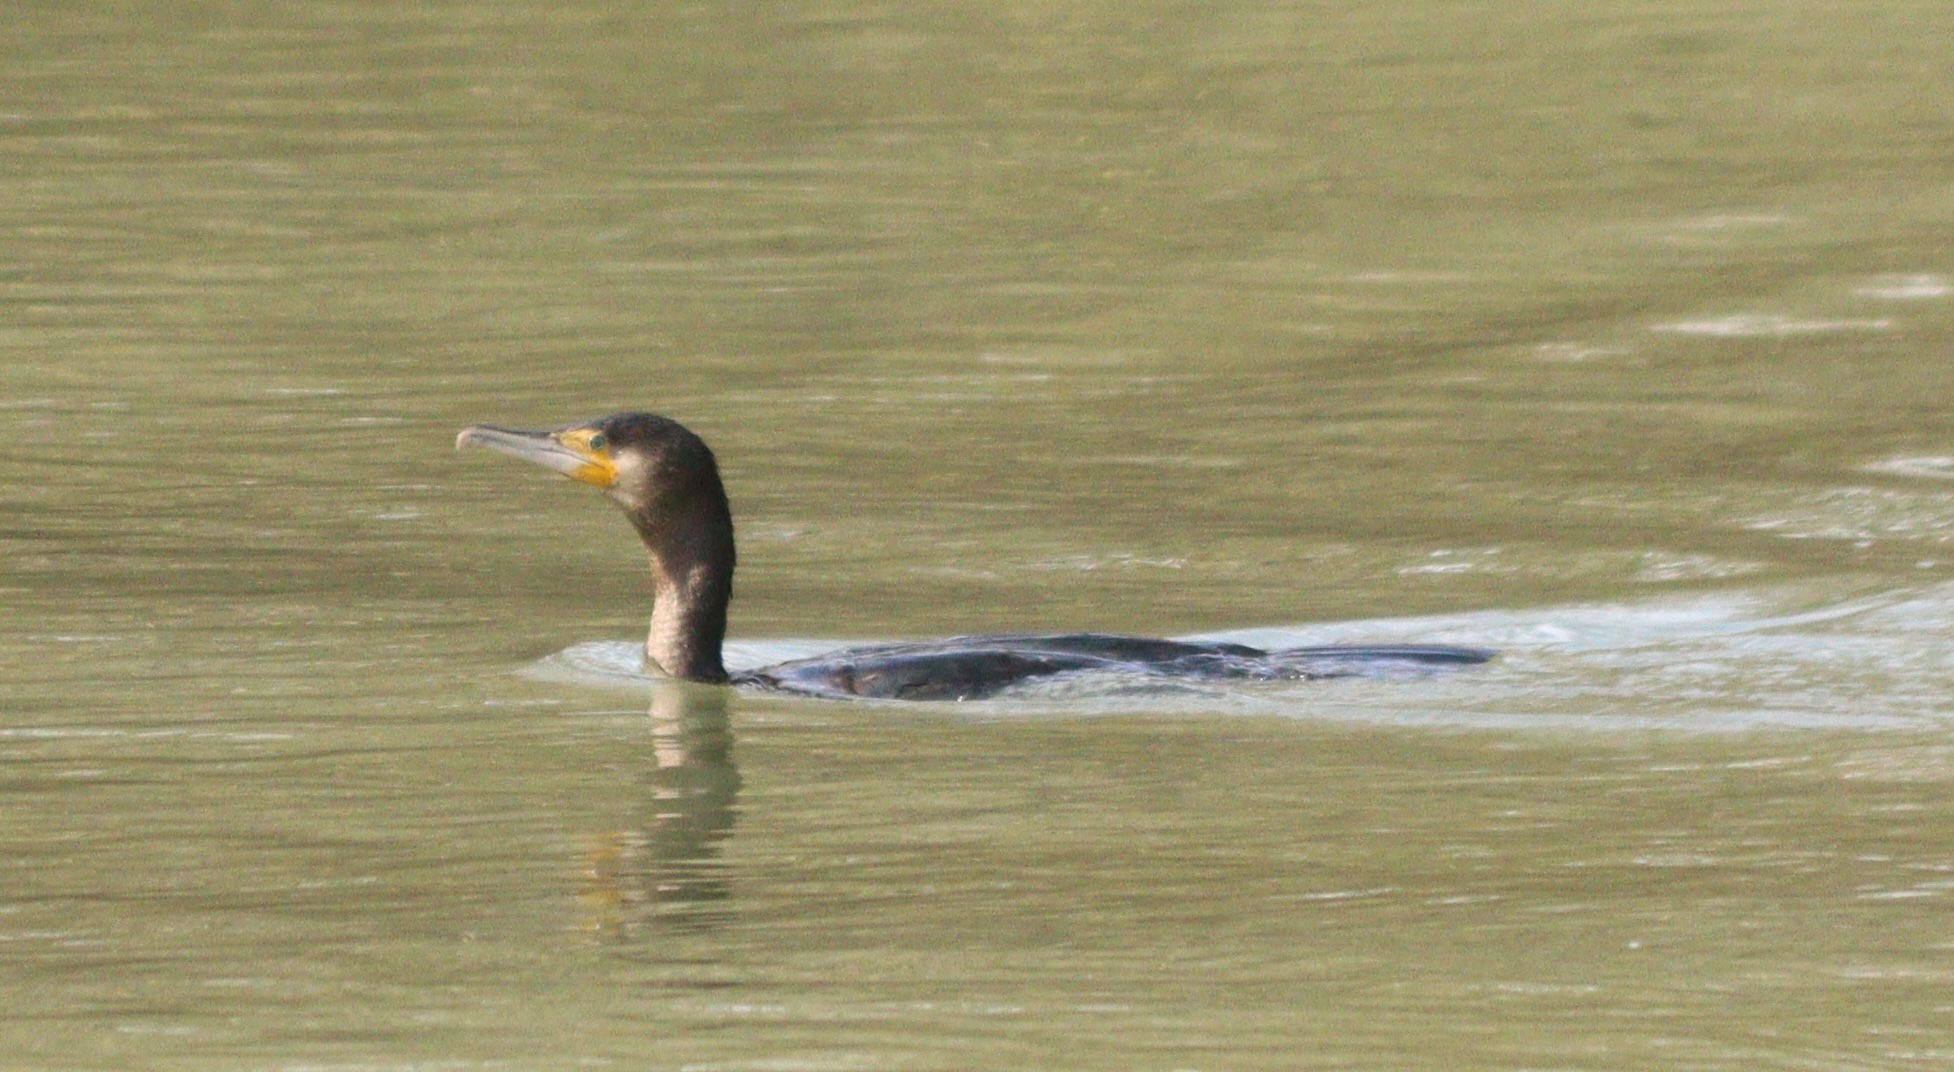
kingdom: Animalia
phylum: Chordata
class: Aves
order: Suliformes
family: Phalacrocoracidae
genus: Phalacrocorax
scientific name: Phalacrocorax carbo
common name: Great cormorant
